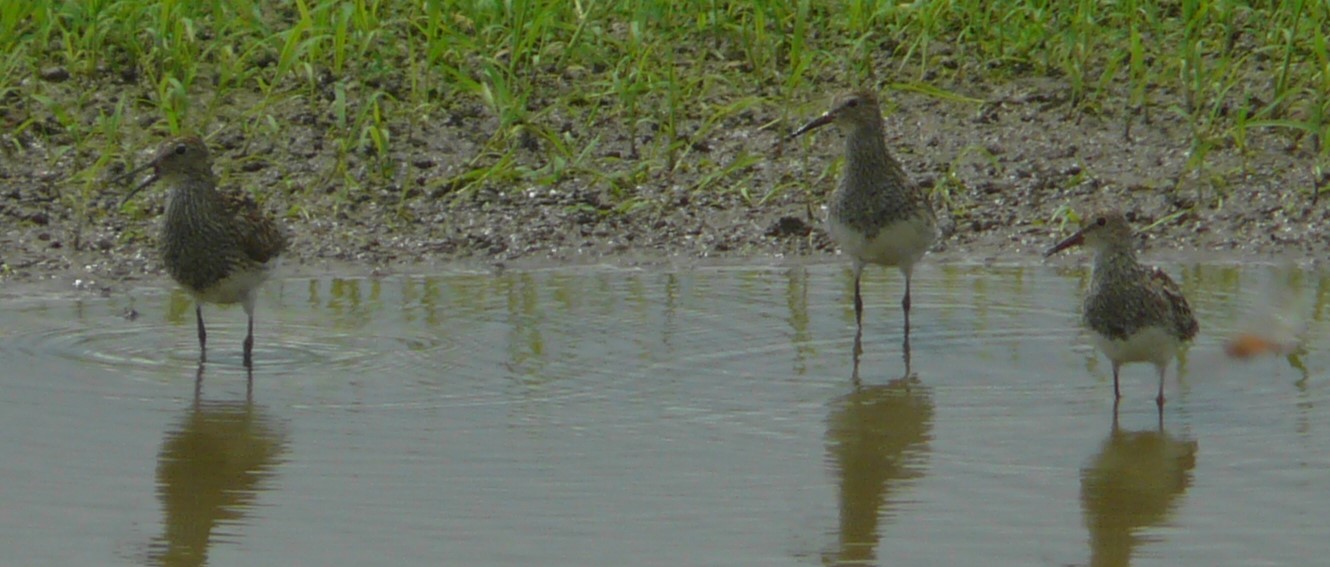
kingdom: Animalia
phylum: Chordata
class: Aves
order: Charadriiformes
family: Scolopacidae
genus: Calidris
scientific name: Calidris melanotos
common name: Pectoral sandpiper
